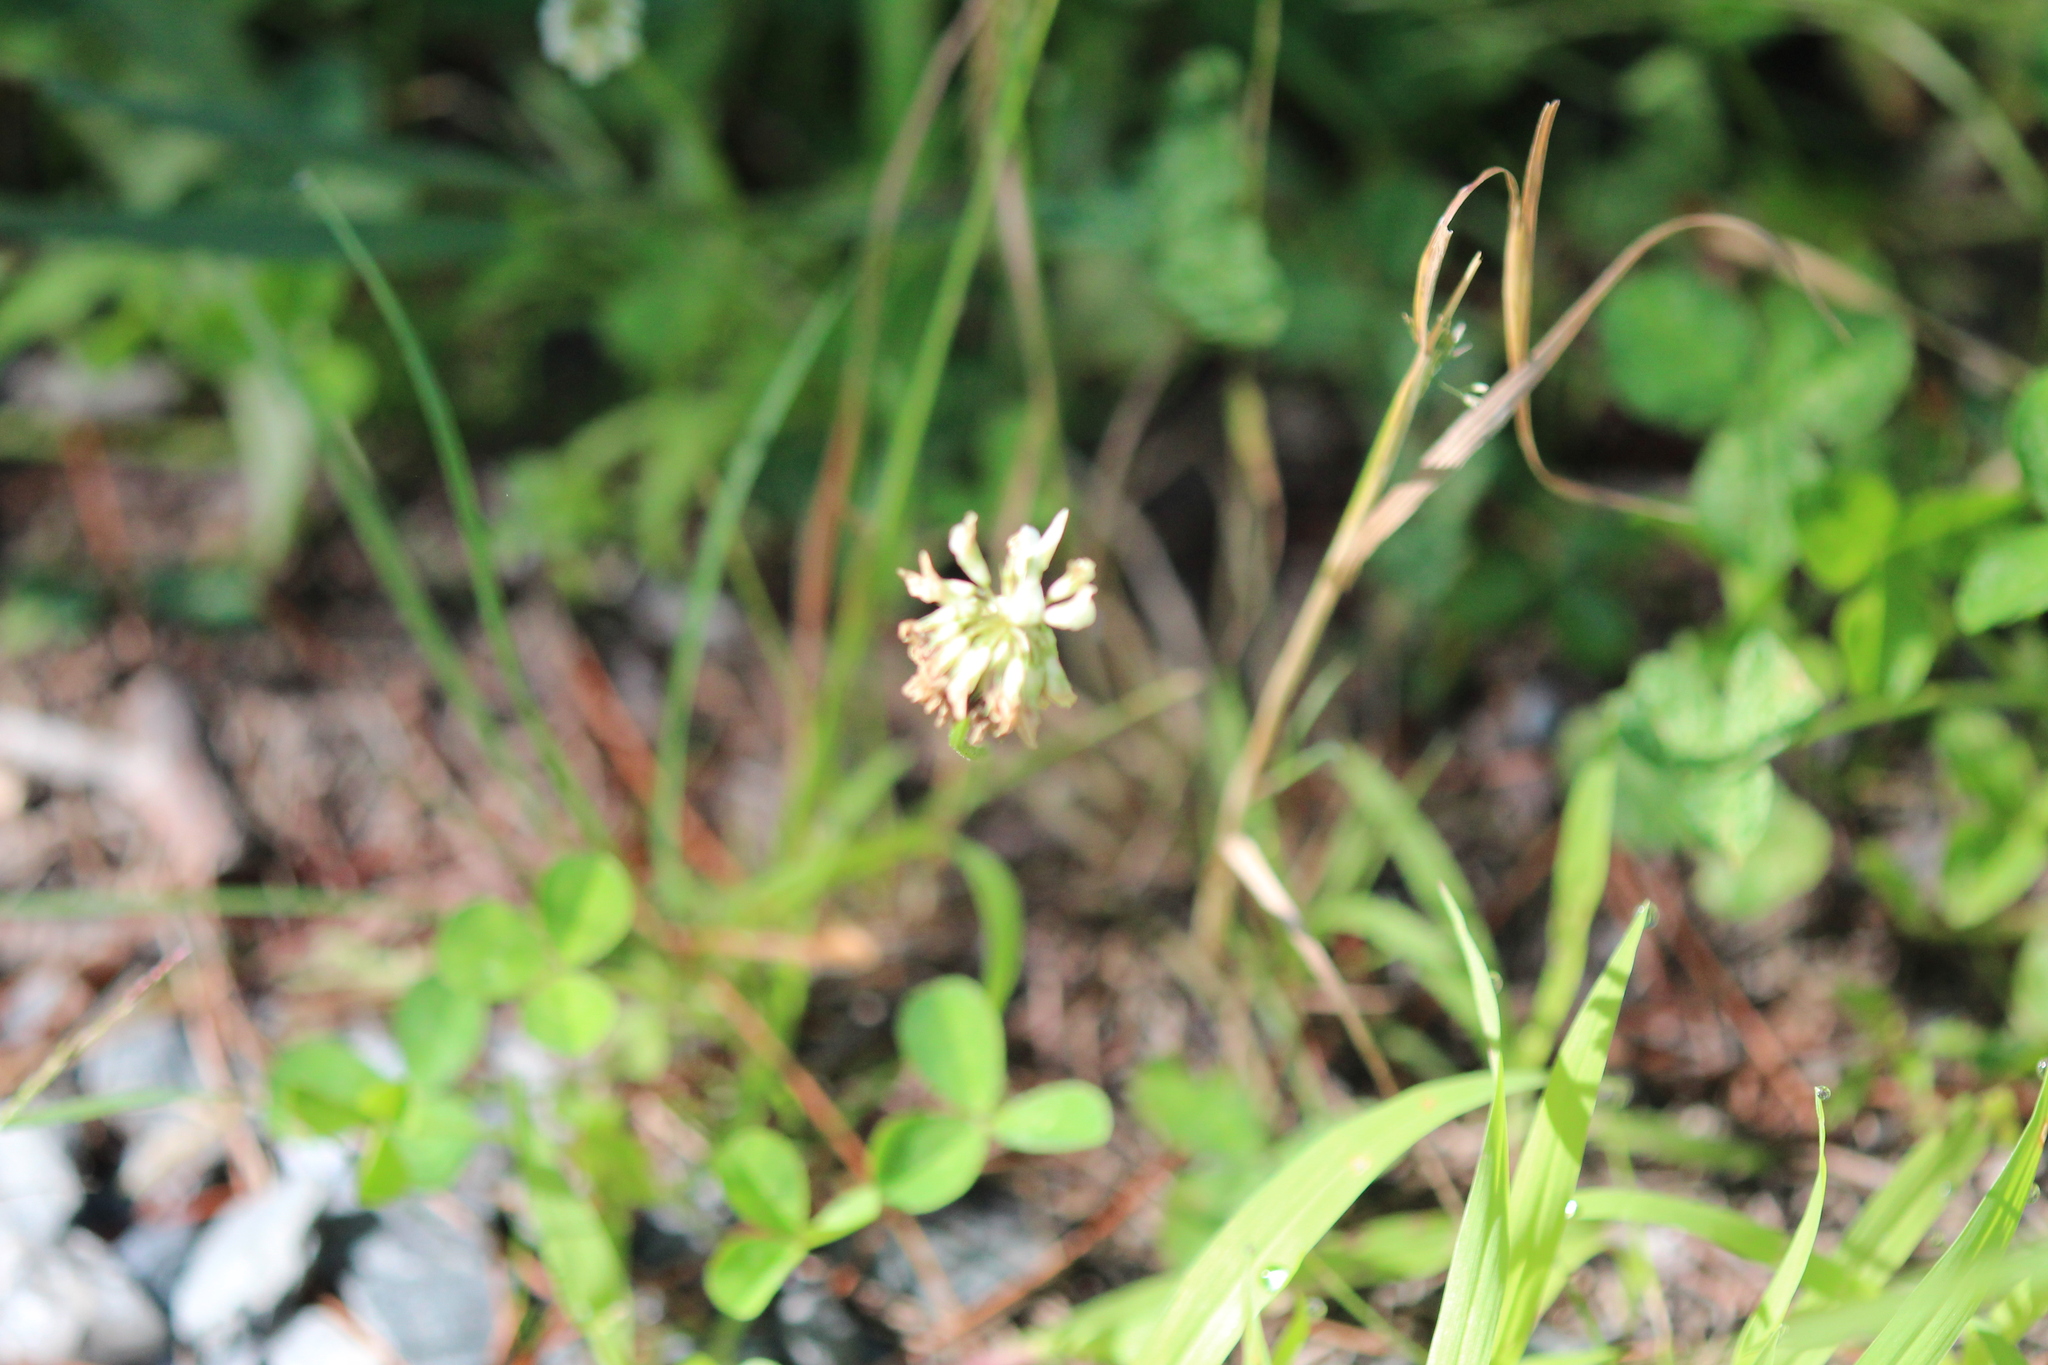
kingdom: Plantae
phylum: Tracheophyta
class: Magnoliopsida
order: Fabales
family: Fabaceae
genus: Trifolium
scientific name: Trifolium repens
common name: White clover
